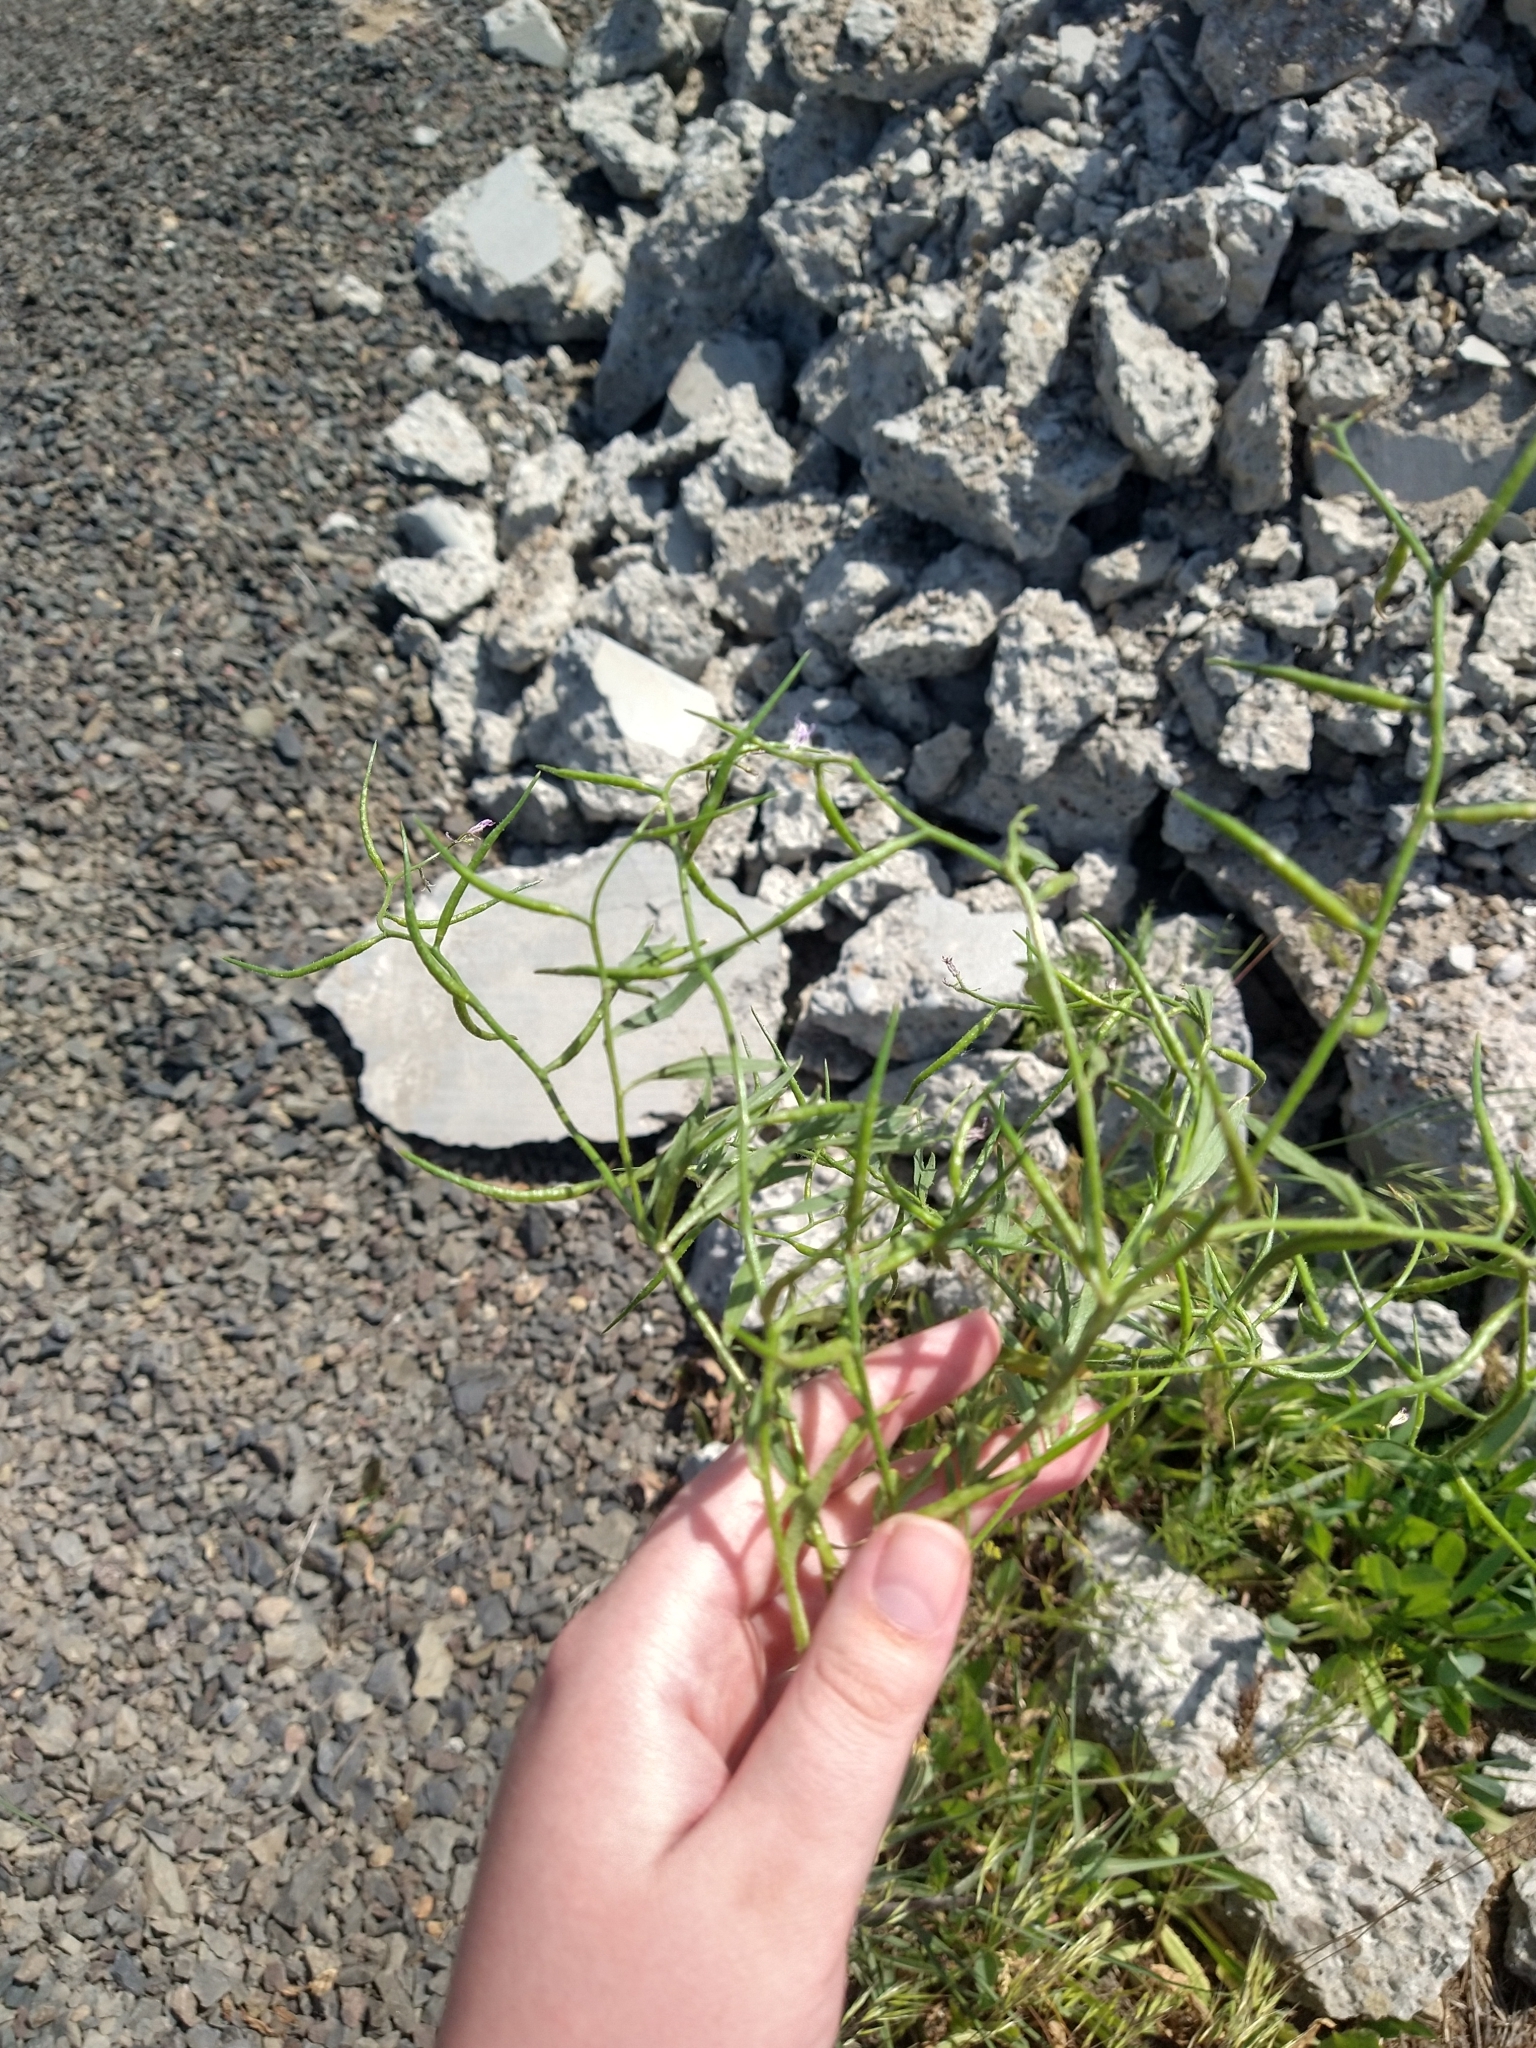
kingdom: Plantae
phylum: Tracheophyta
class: Magnoliopsida
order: Brassicales
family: Brassicaceae
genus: Chorispora
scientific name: Chorispora tenella
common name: Crossflower
